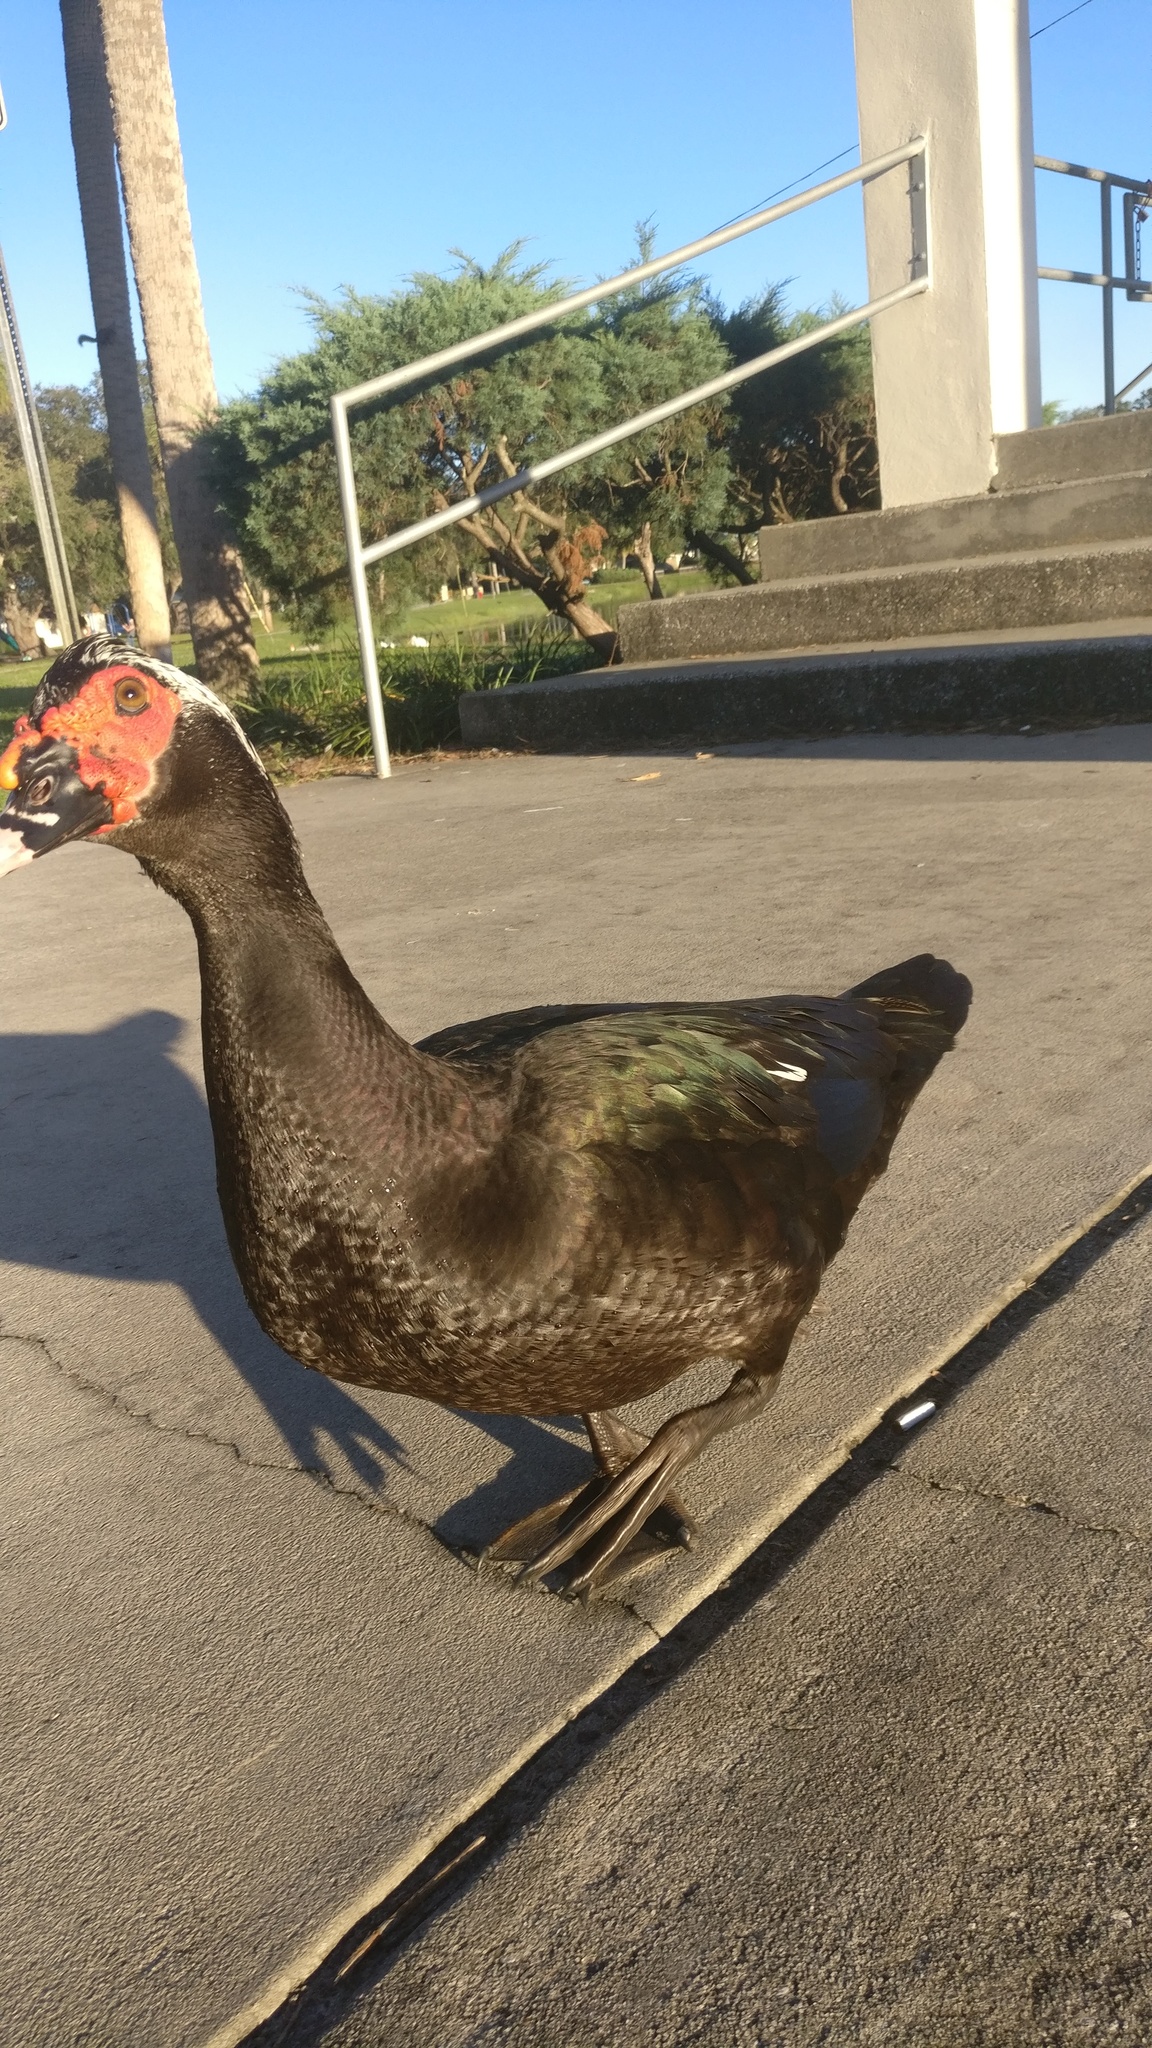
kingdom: Animalia
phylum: Chordata
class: Aves
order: Anseriformes
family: Anatidae
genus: Cairina
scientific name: Cairina moschata
